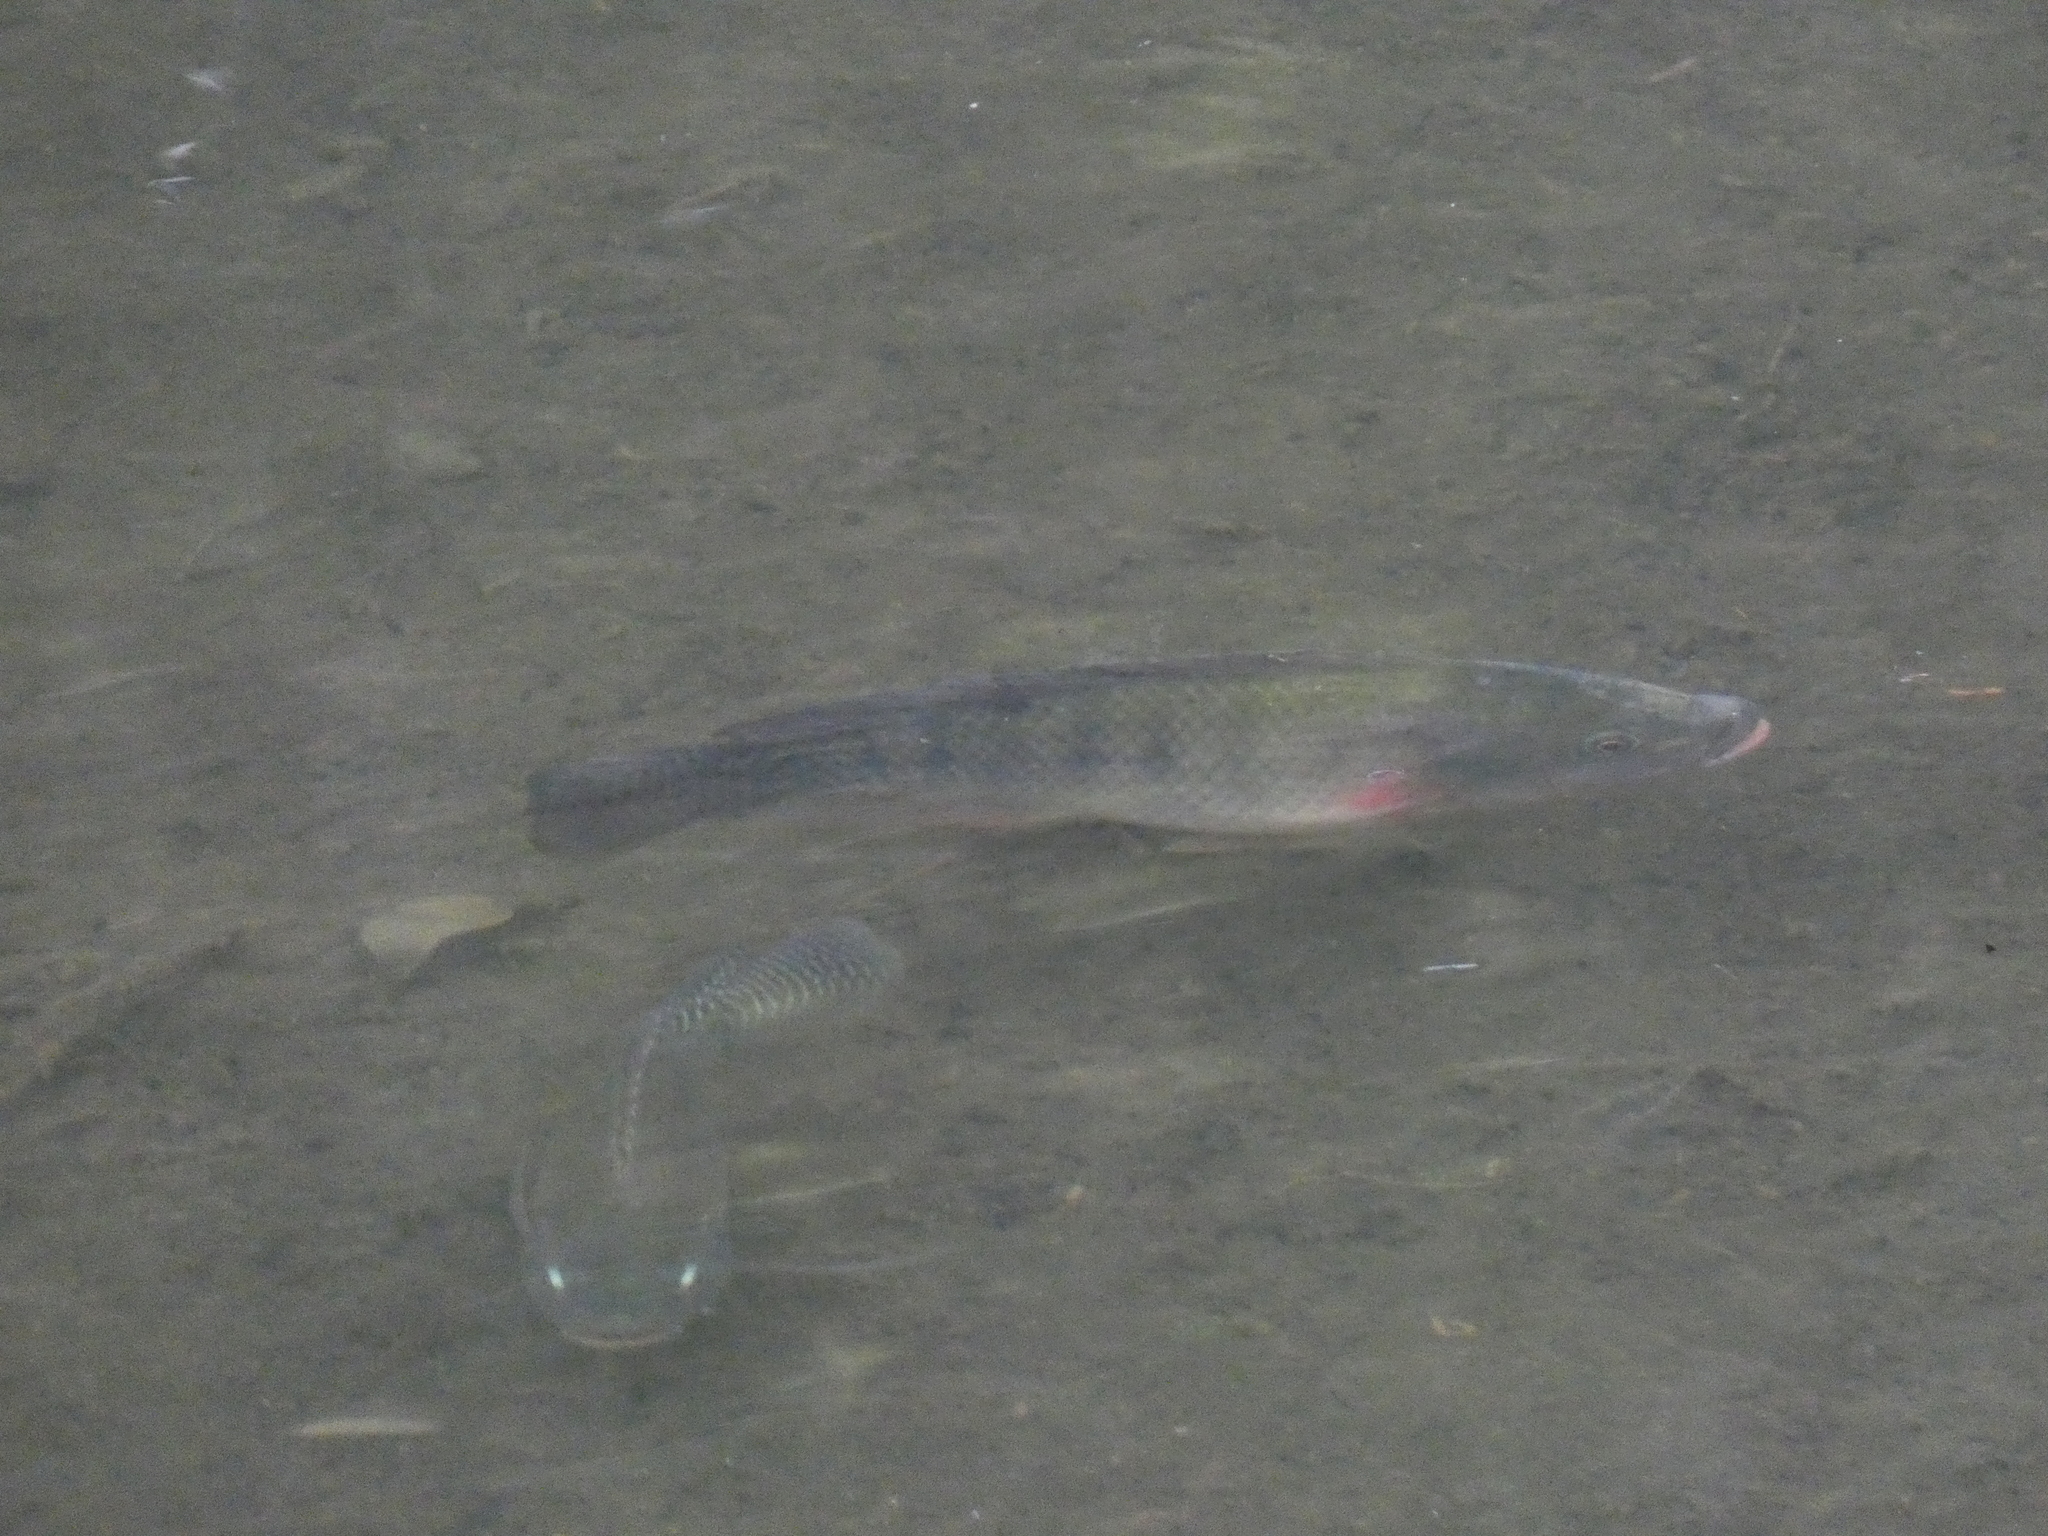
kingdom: Animalia
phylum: Chordata
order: Perciformes
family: Cichlidae
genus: Oreochromis
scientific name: Oreochromis niloticus
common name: Nile tilapia
